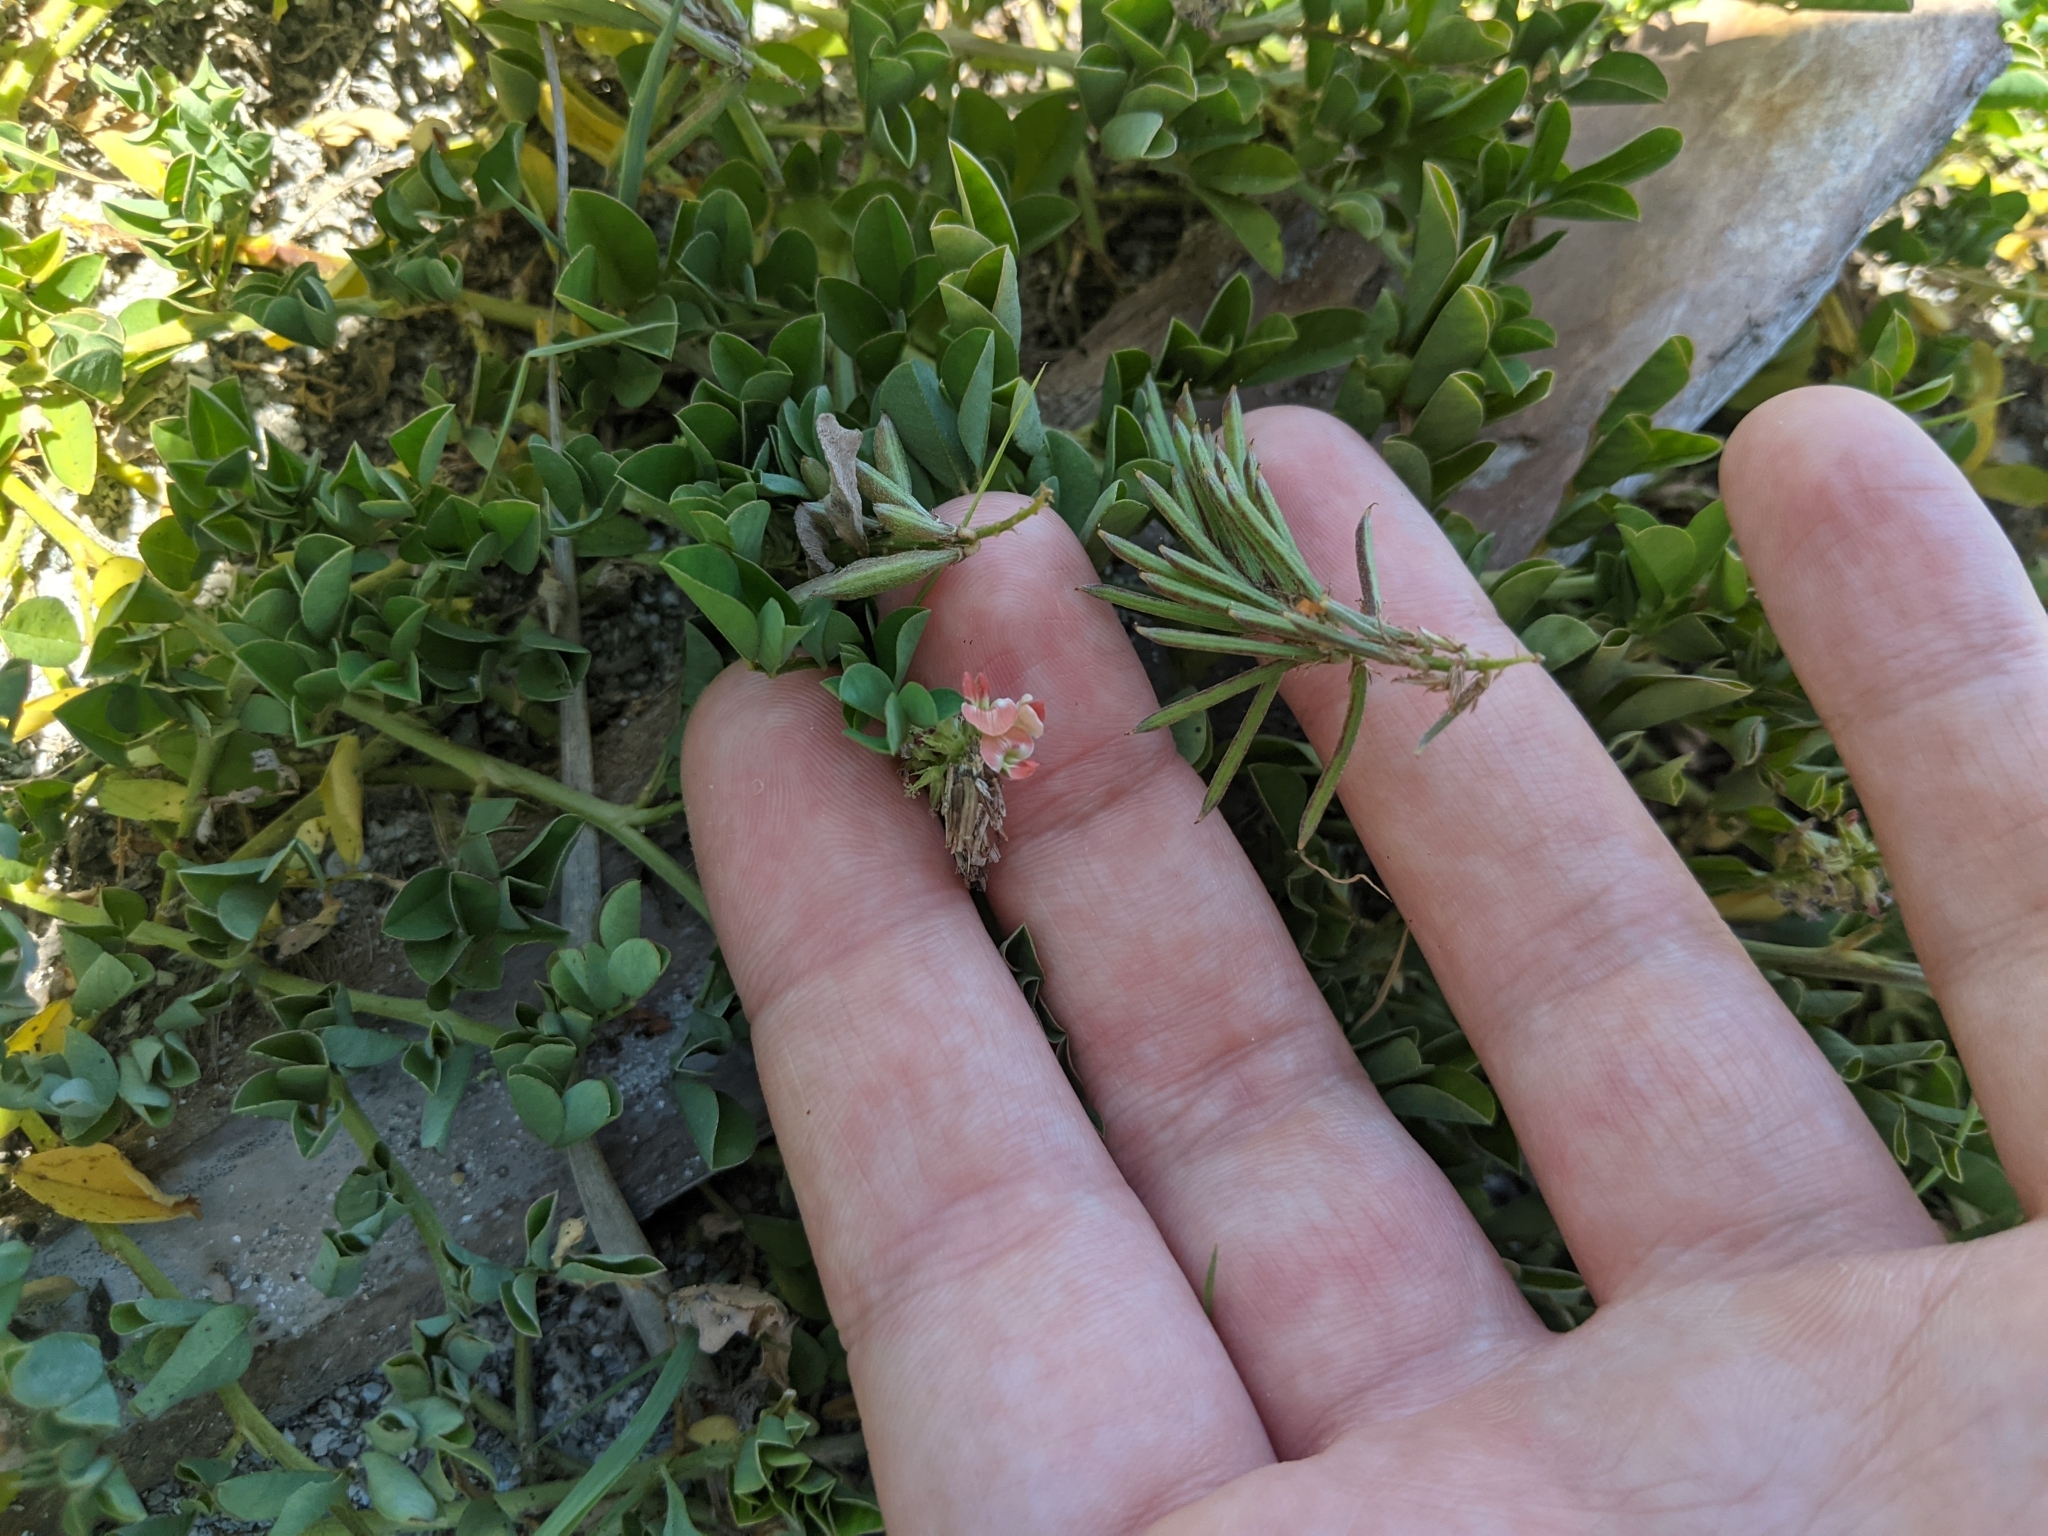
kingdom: Plantae
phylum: Tracheophyta
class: Magnoliopsida
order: Fabales
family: Fabaceae
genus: Indigofera
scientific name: Indigofera spicata
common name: Creeping indigo
